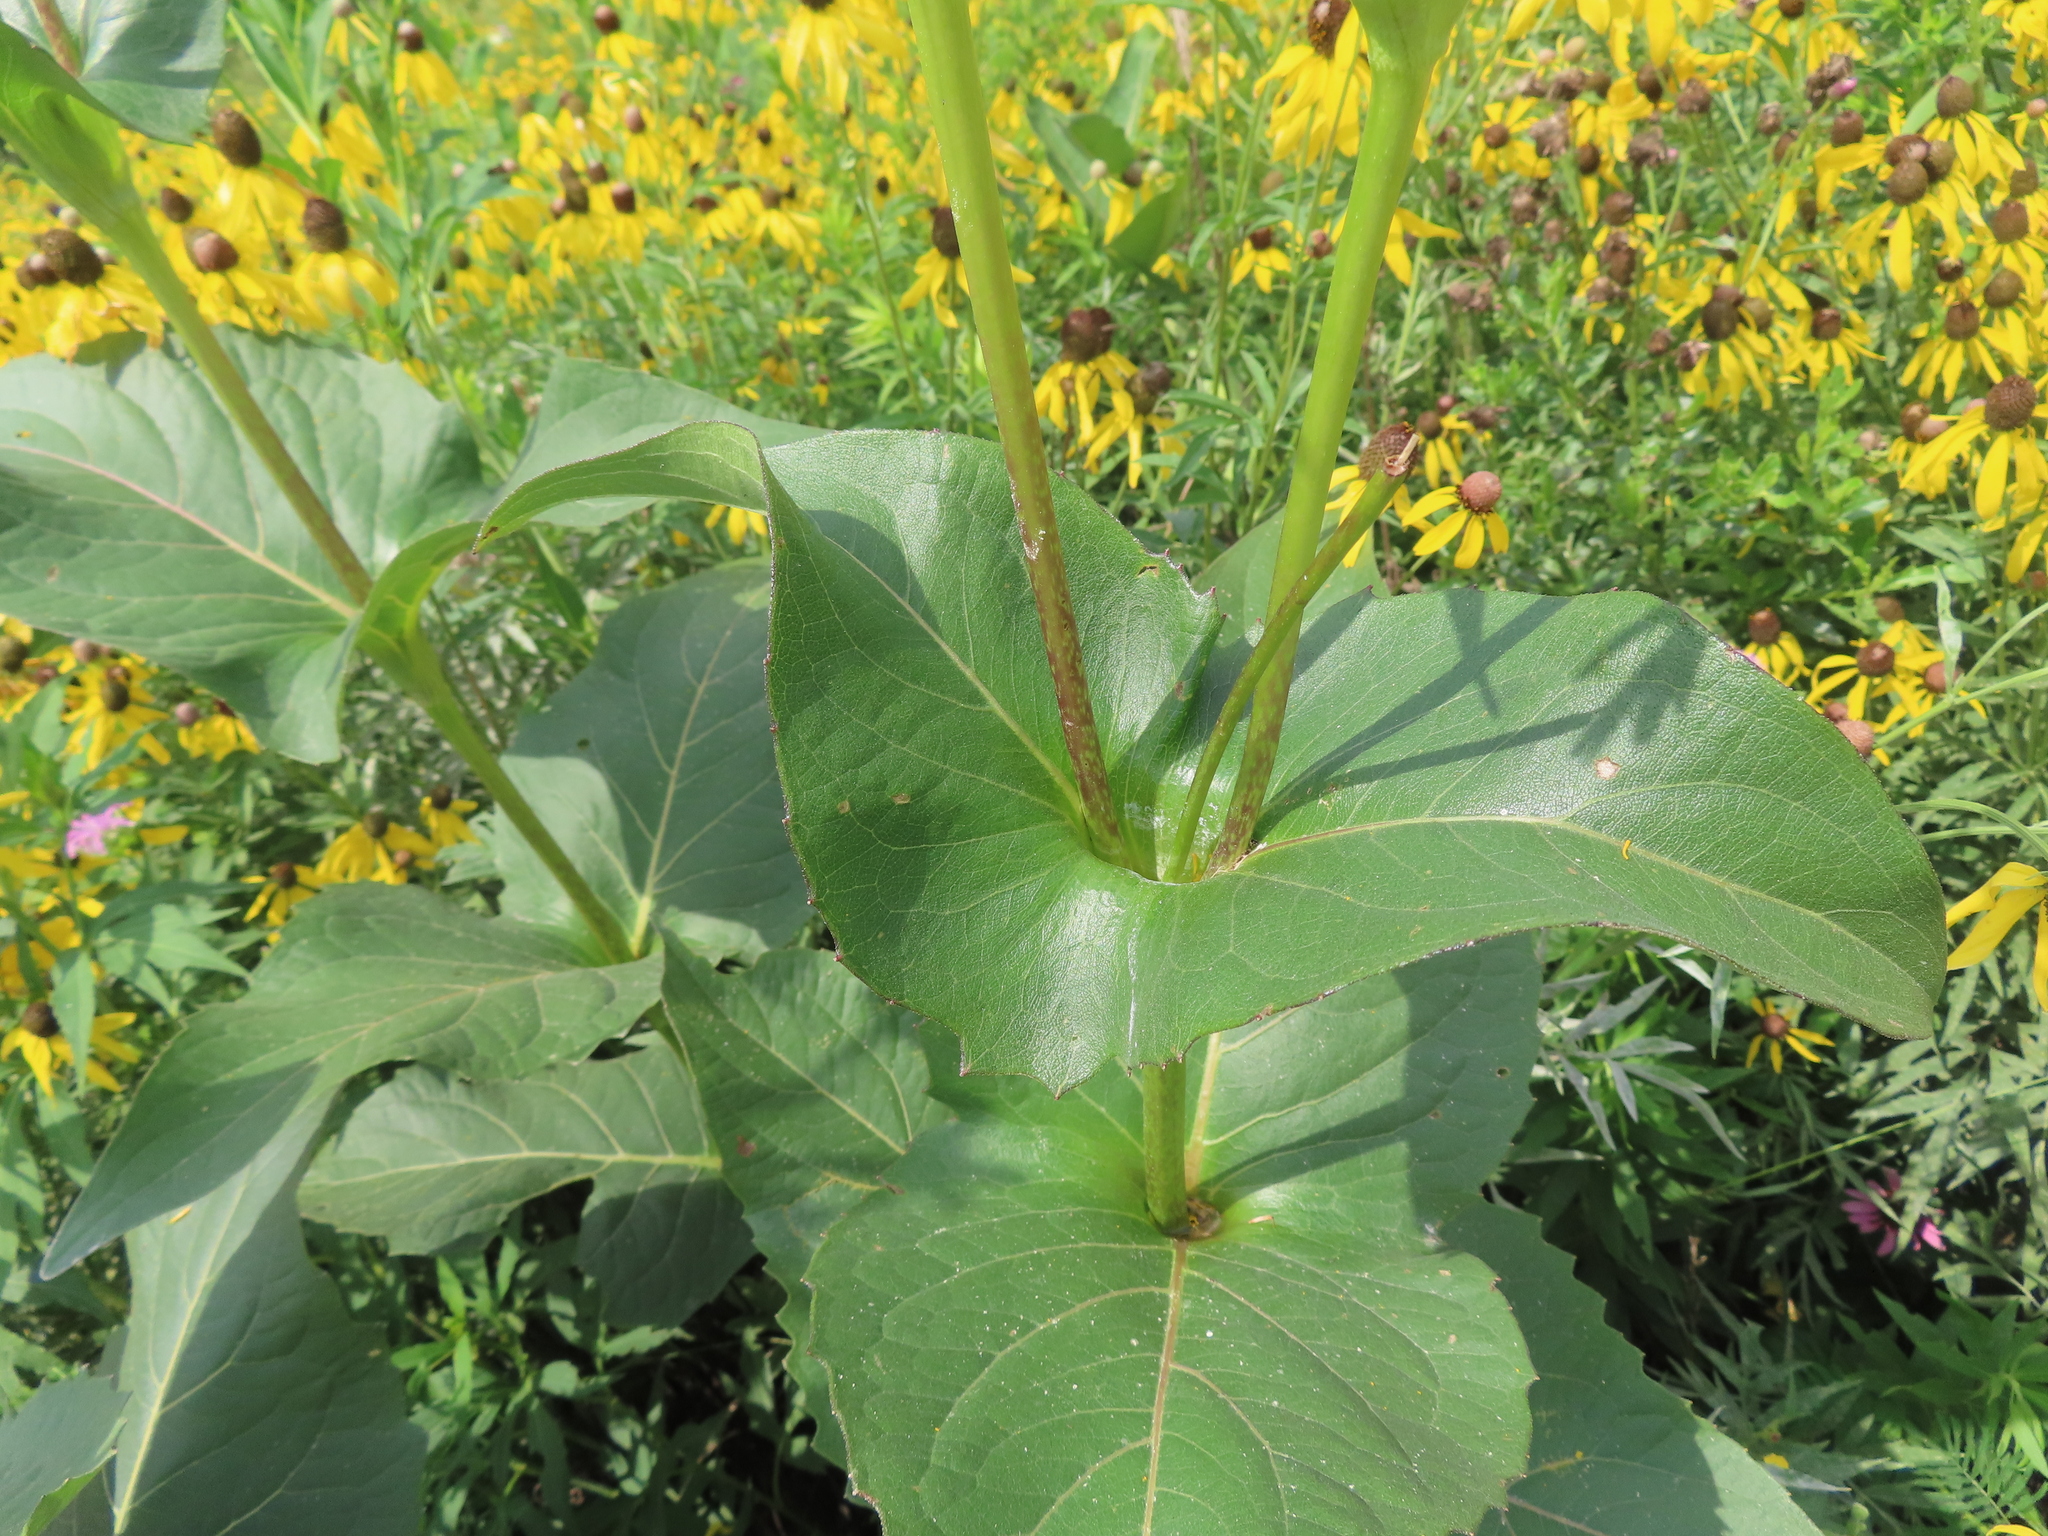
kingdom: Plantae
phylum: Tracheophyta
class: Magnoliopsida
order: Asterales
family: Asteraceae
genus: Silphium
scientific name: Silphium perfoliatum
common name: Cup-plant
